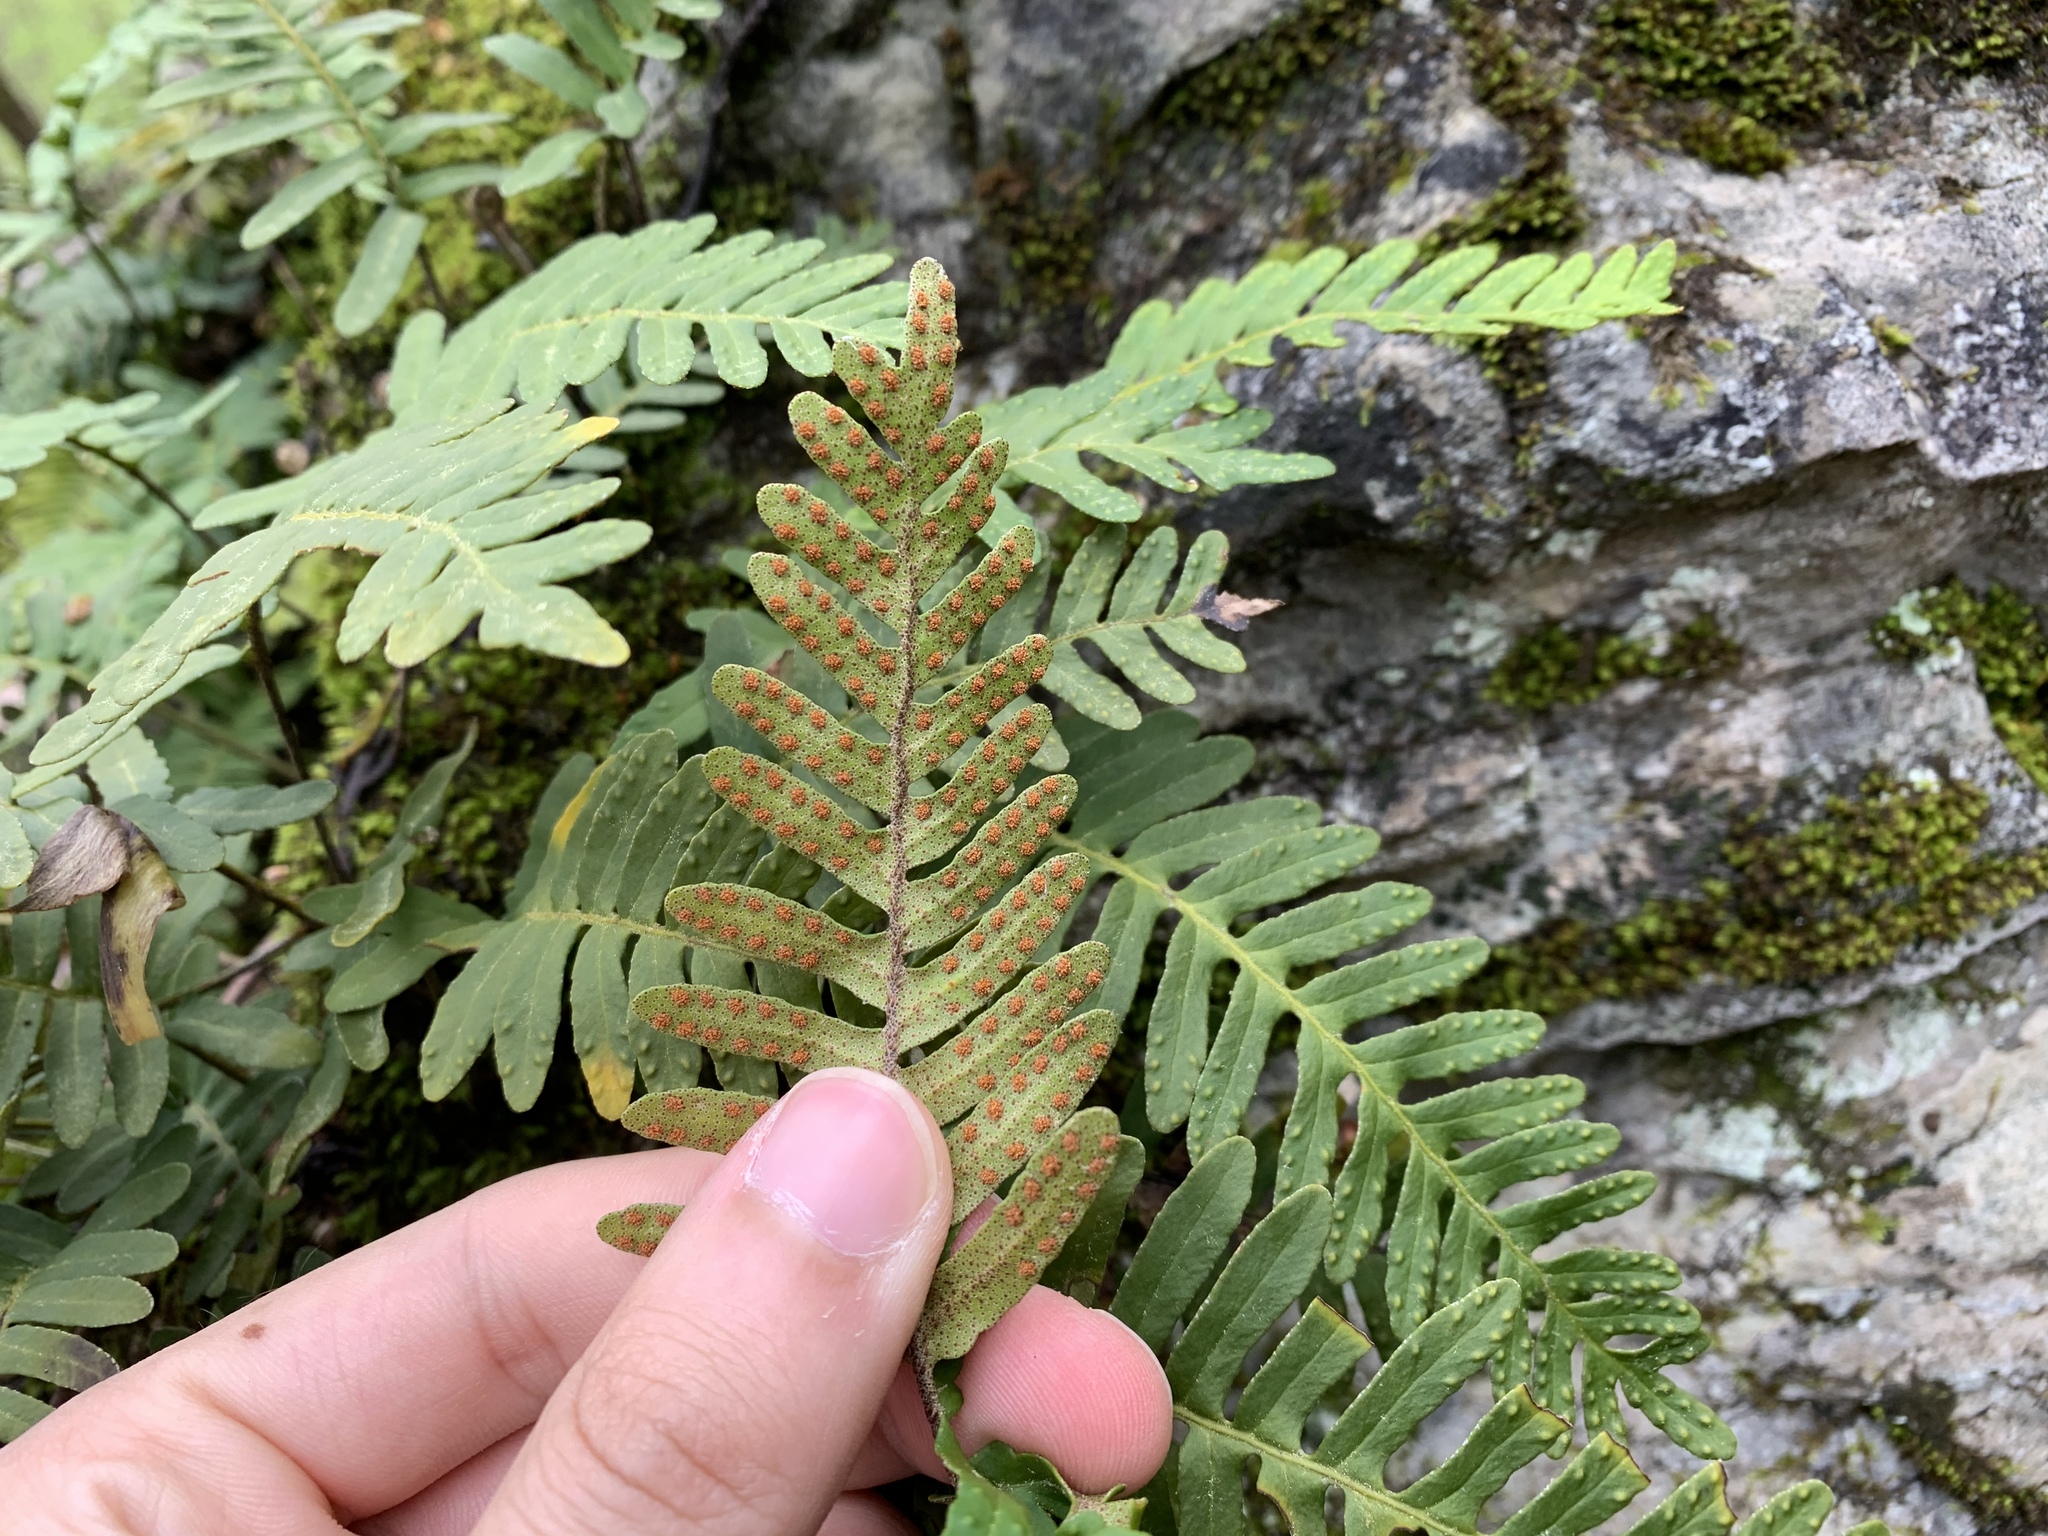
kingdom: Plantae
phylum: Tracheophyta
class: Polypodiopsida
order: Polypodiales
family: Polypodiaceae
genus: Pleopeltis
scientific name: Pleopeltis michauxiana
